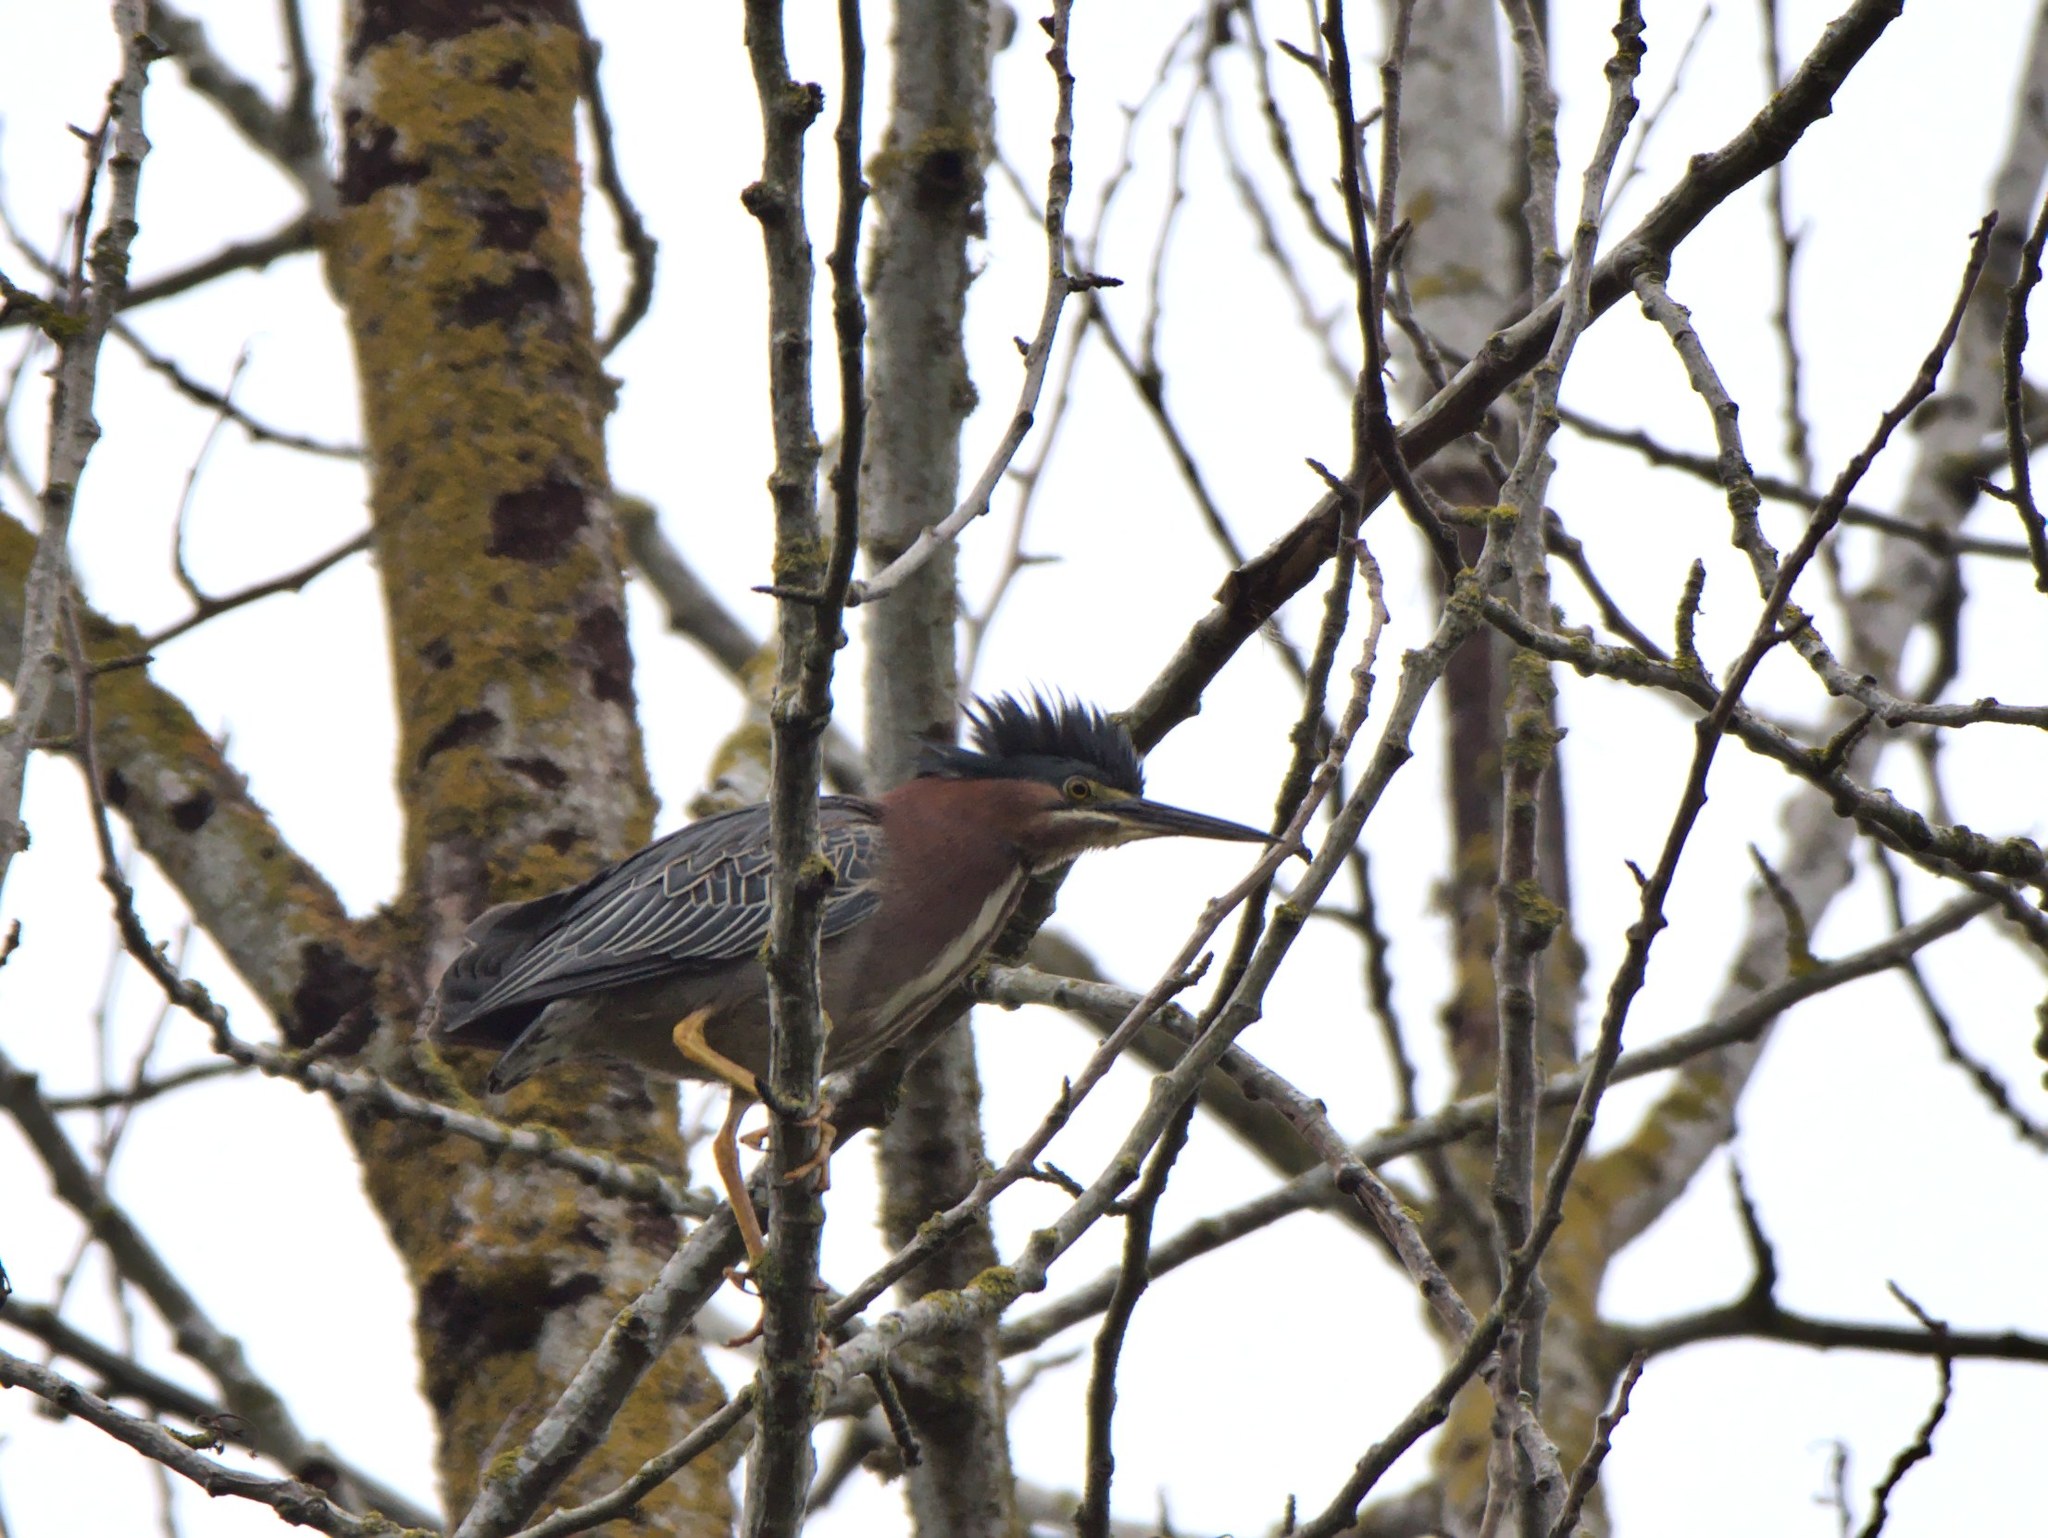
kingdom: Animalia
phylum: Chordata
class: Aves
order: Pelecaniformes
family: Ardeidae
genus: Butorides
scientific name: Butorides virescens
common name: Green heron
